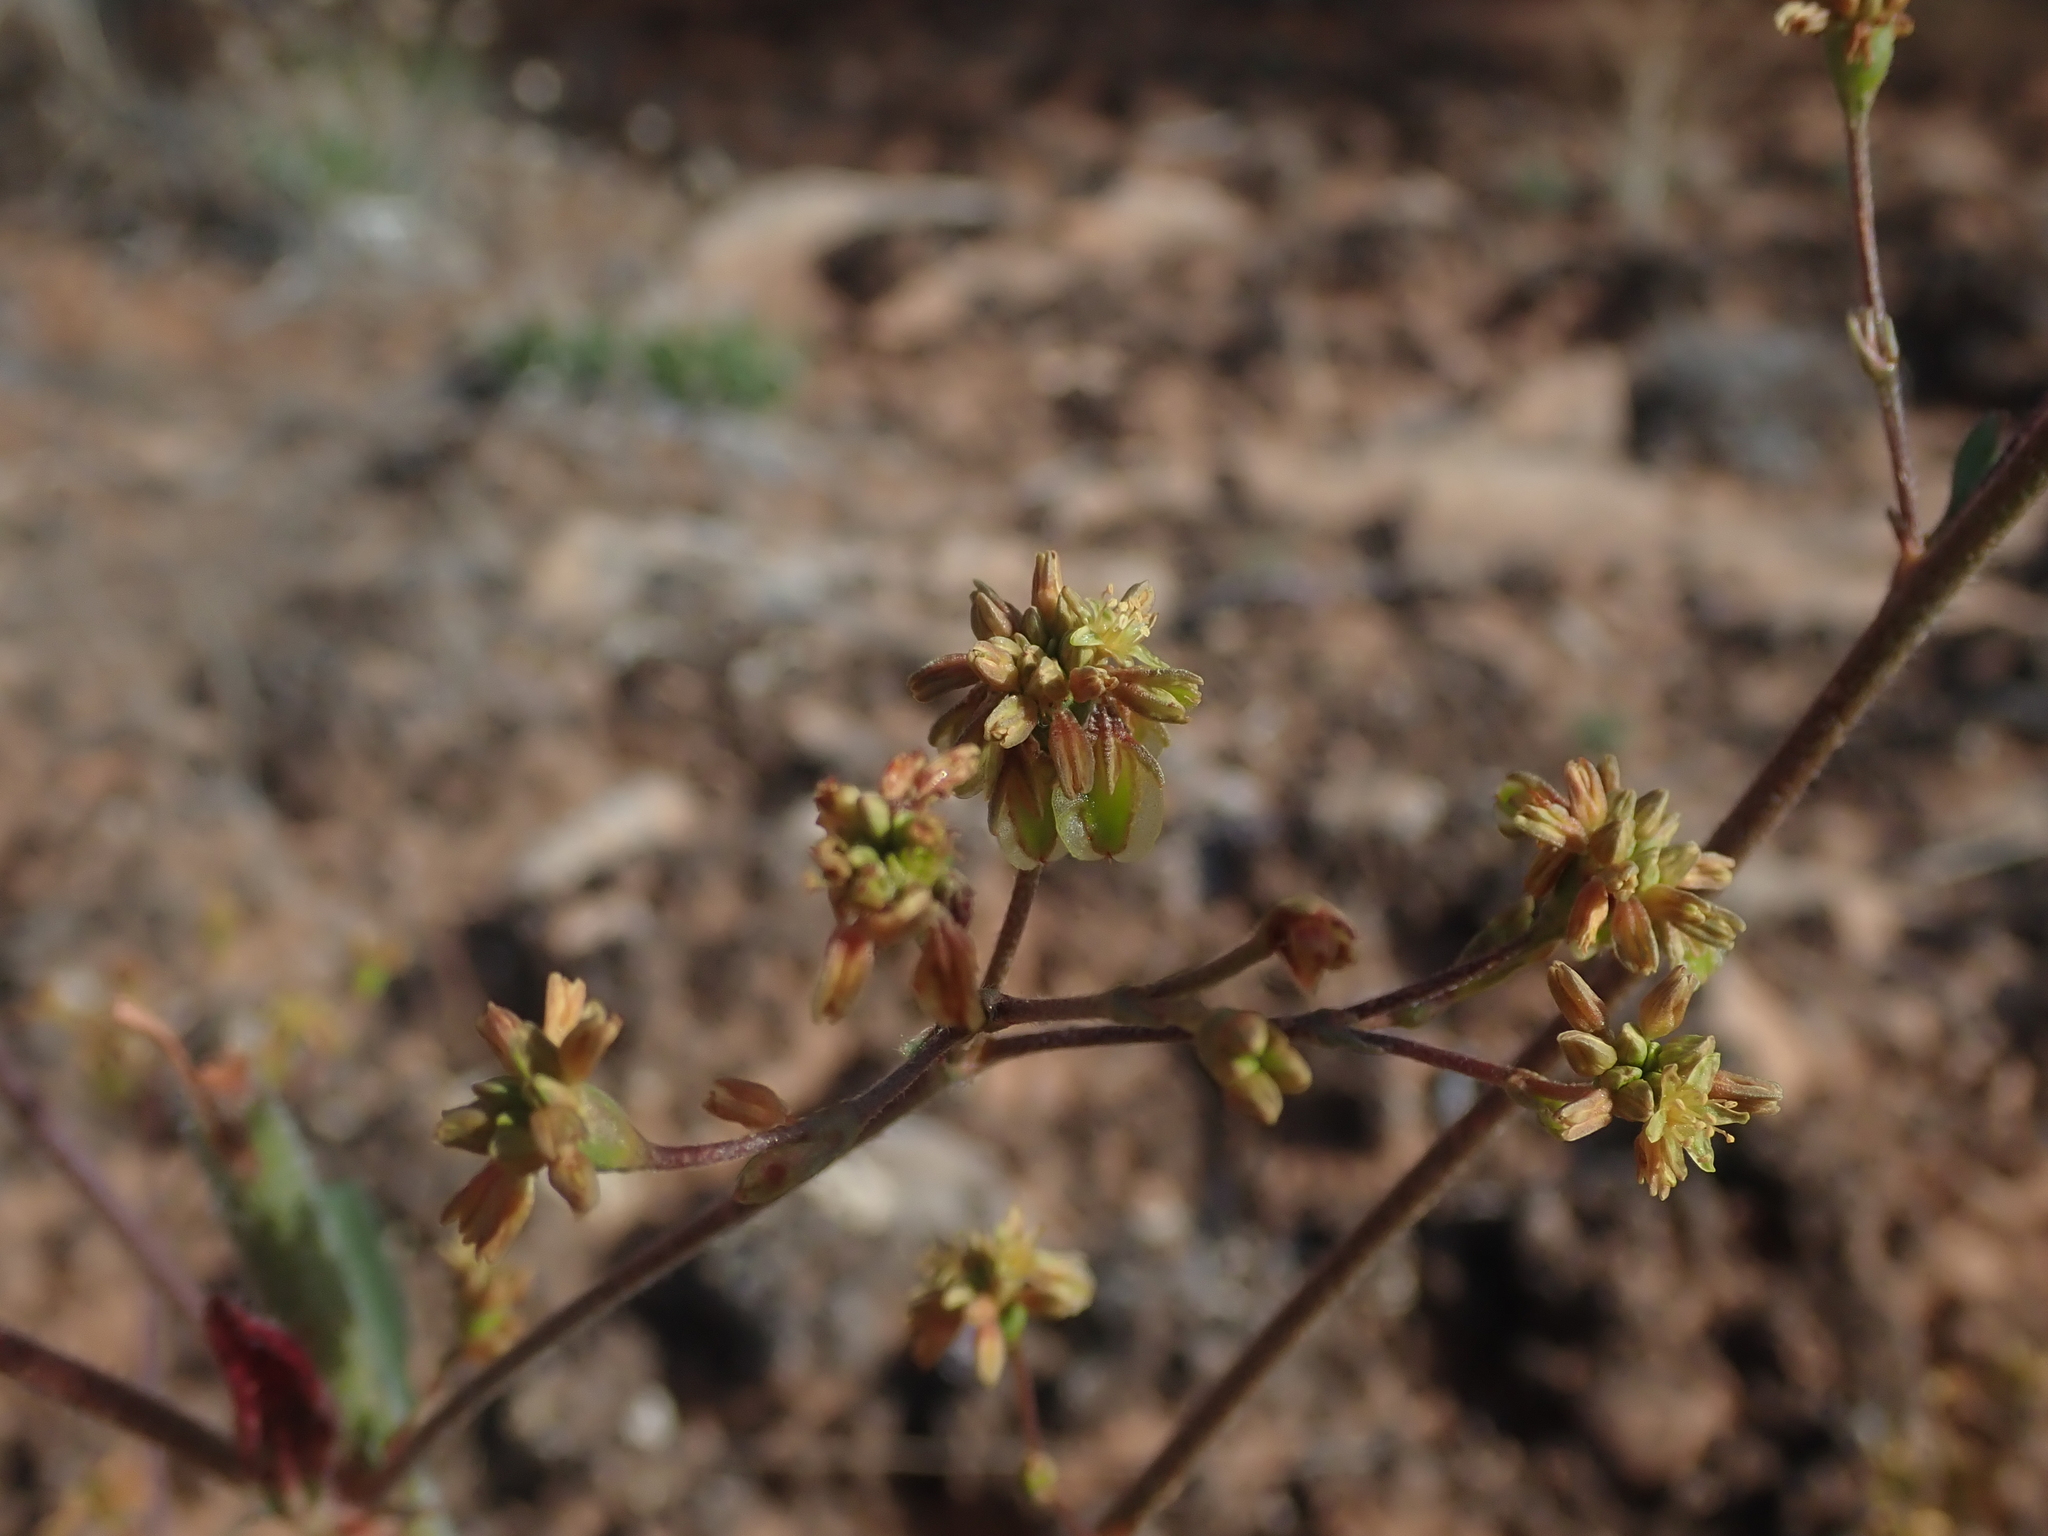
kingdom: Plantae
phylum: Tracheophyta
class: Magnoliopsida
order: Caryophyllales
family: Polygonaceae
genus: Eriogonum
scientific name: Eriogonum alatum
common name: Winged eriogonum
